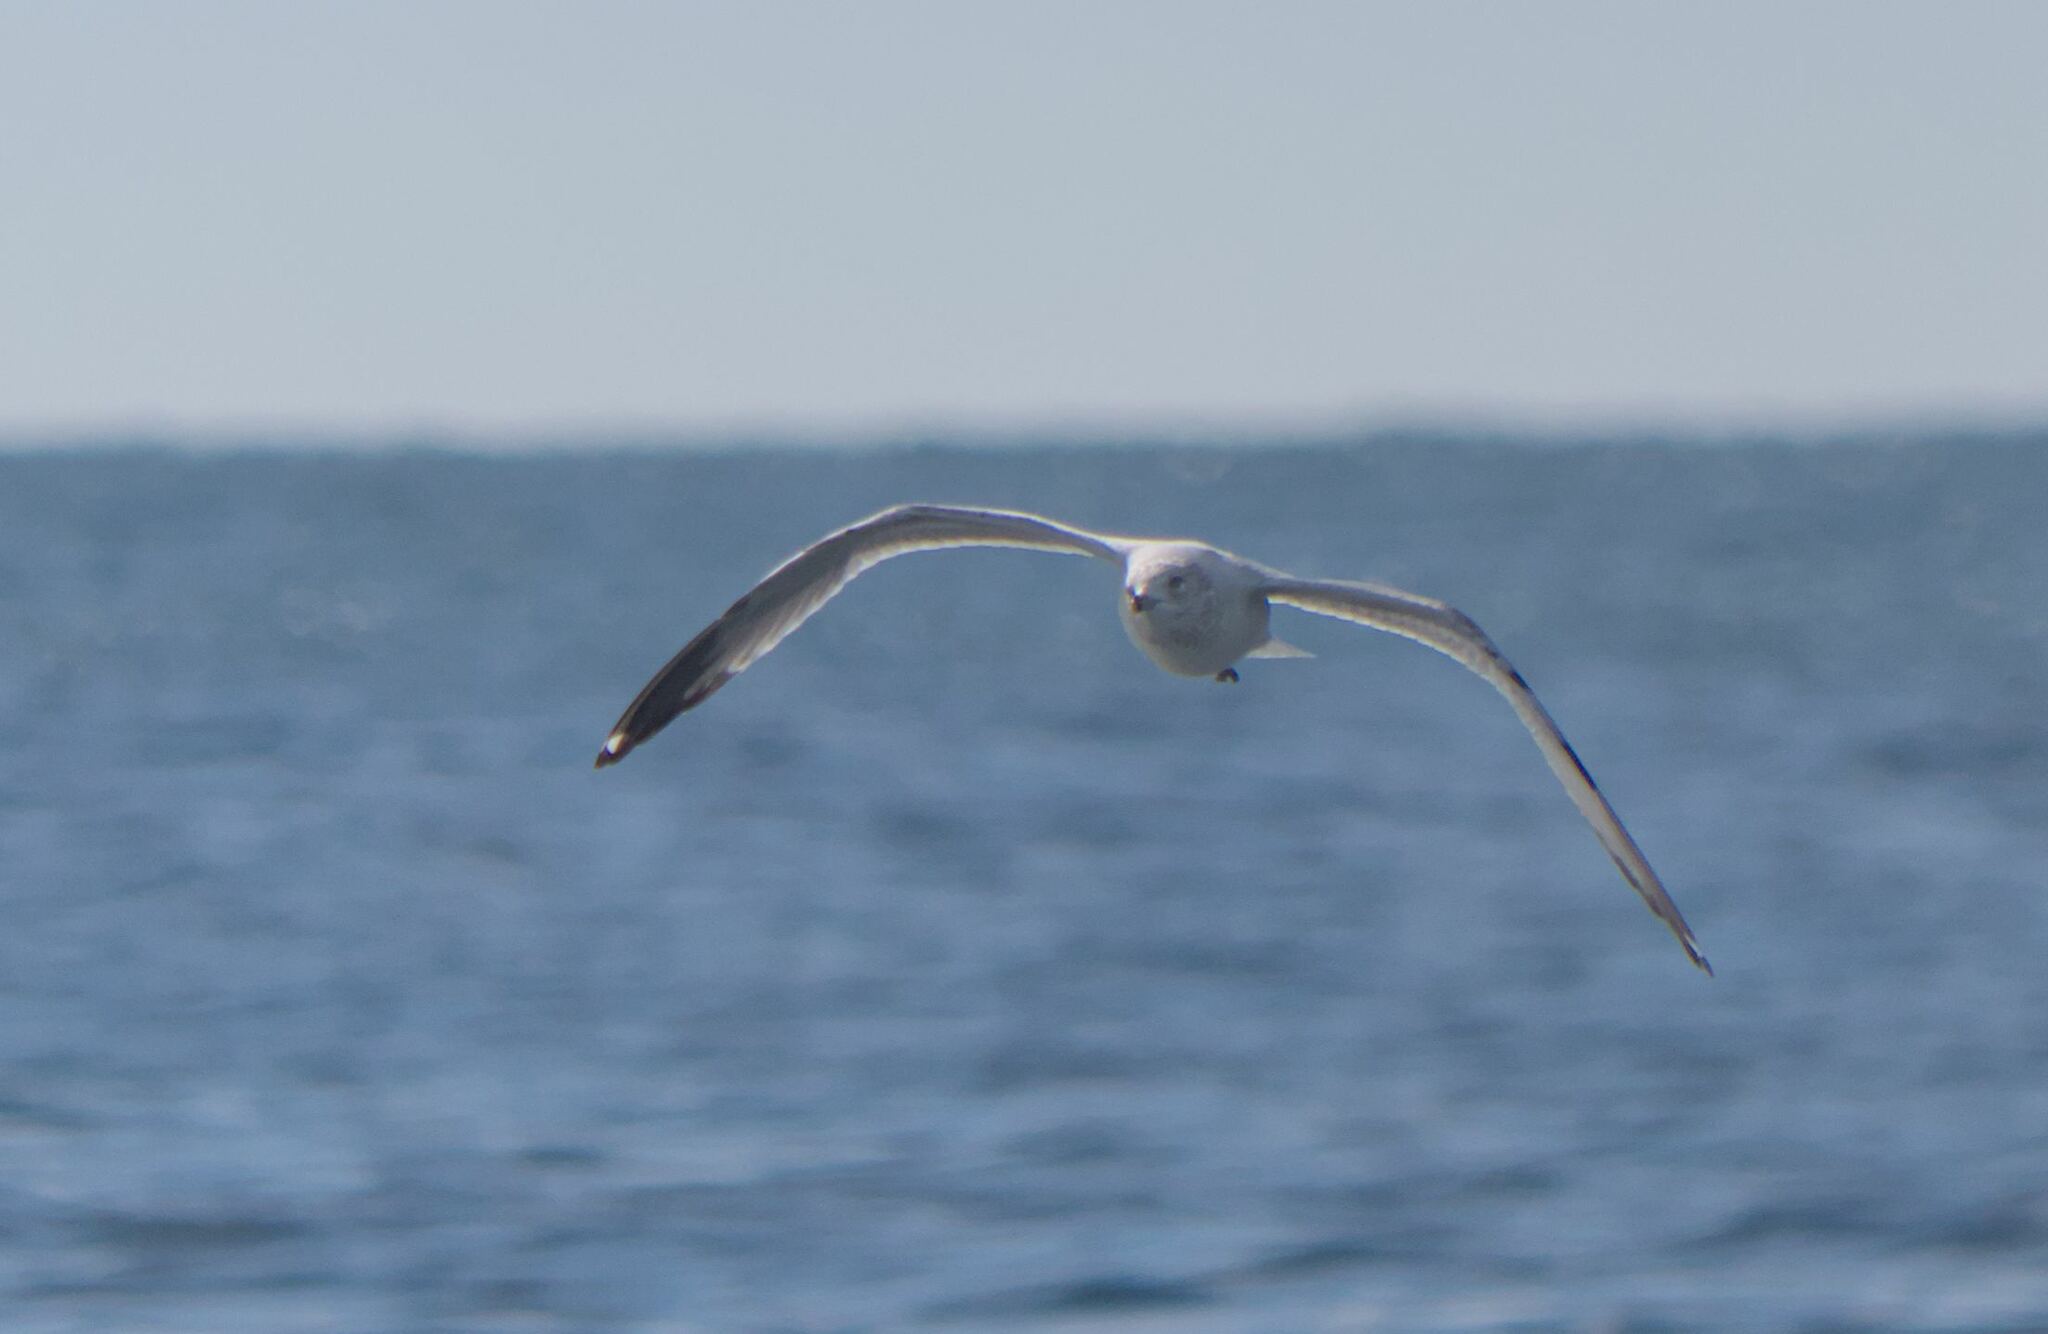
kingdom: Animalia
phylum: Chordata
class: Aves
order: Charadriiformes
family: Laridae
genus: Larus
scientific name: Larus delawarensis
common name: Ring-billed gull
